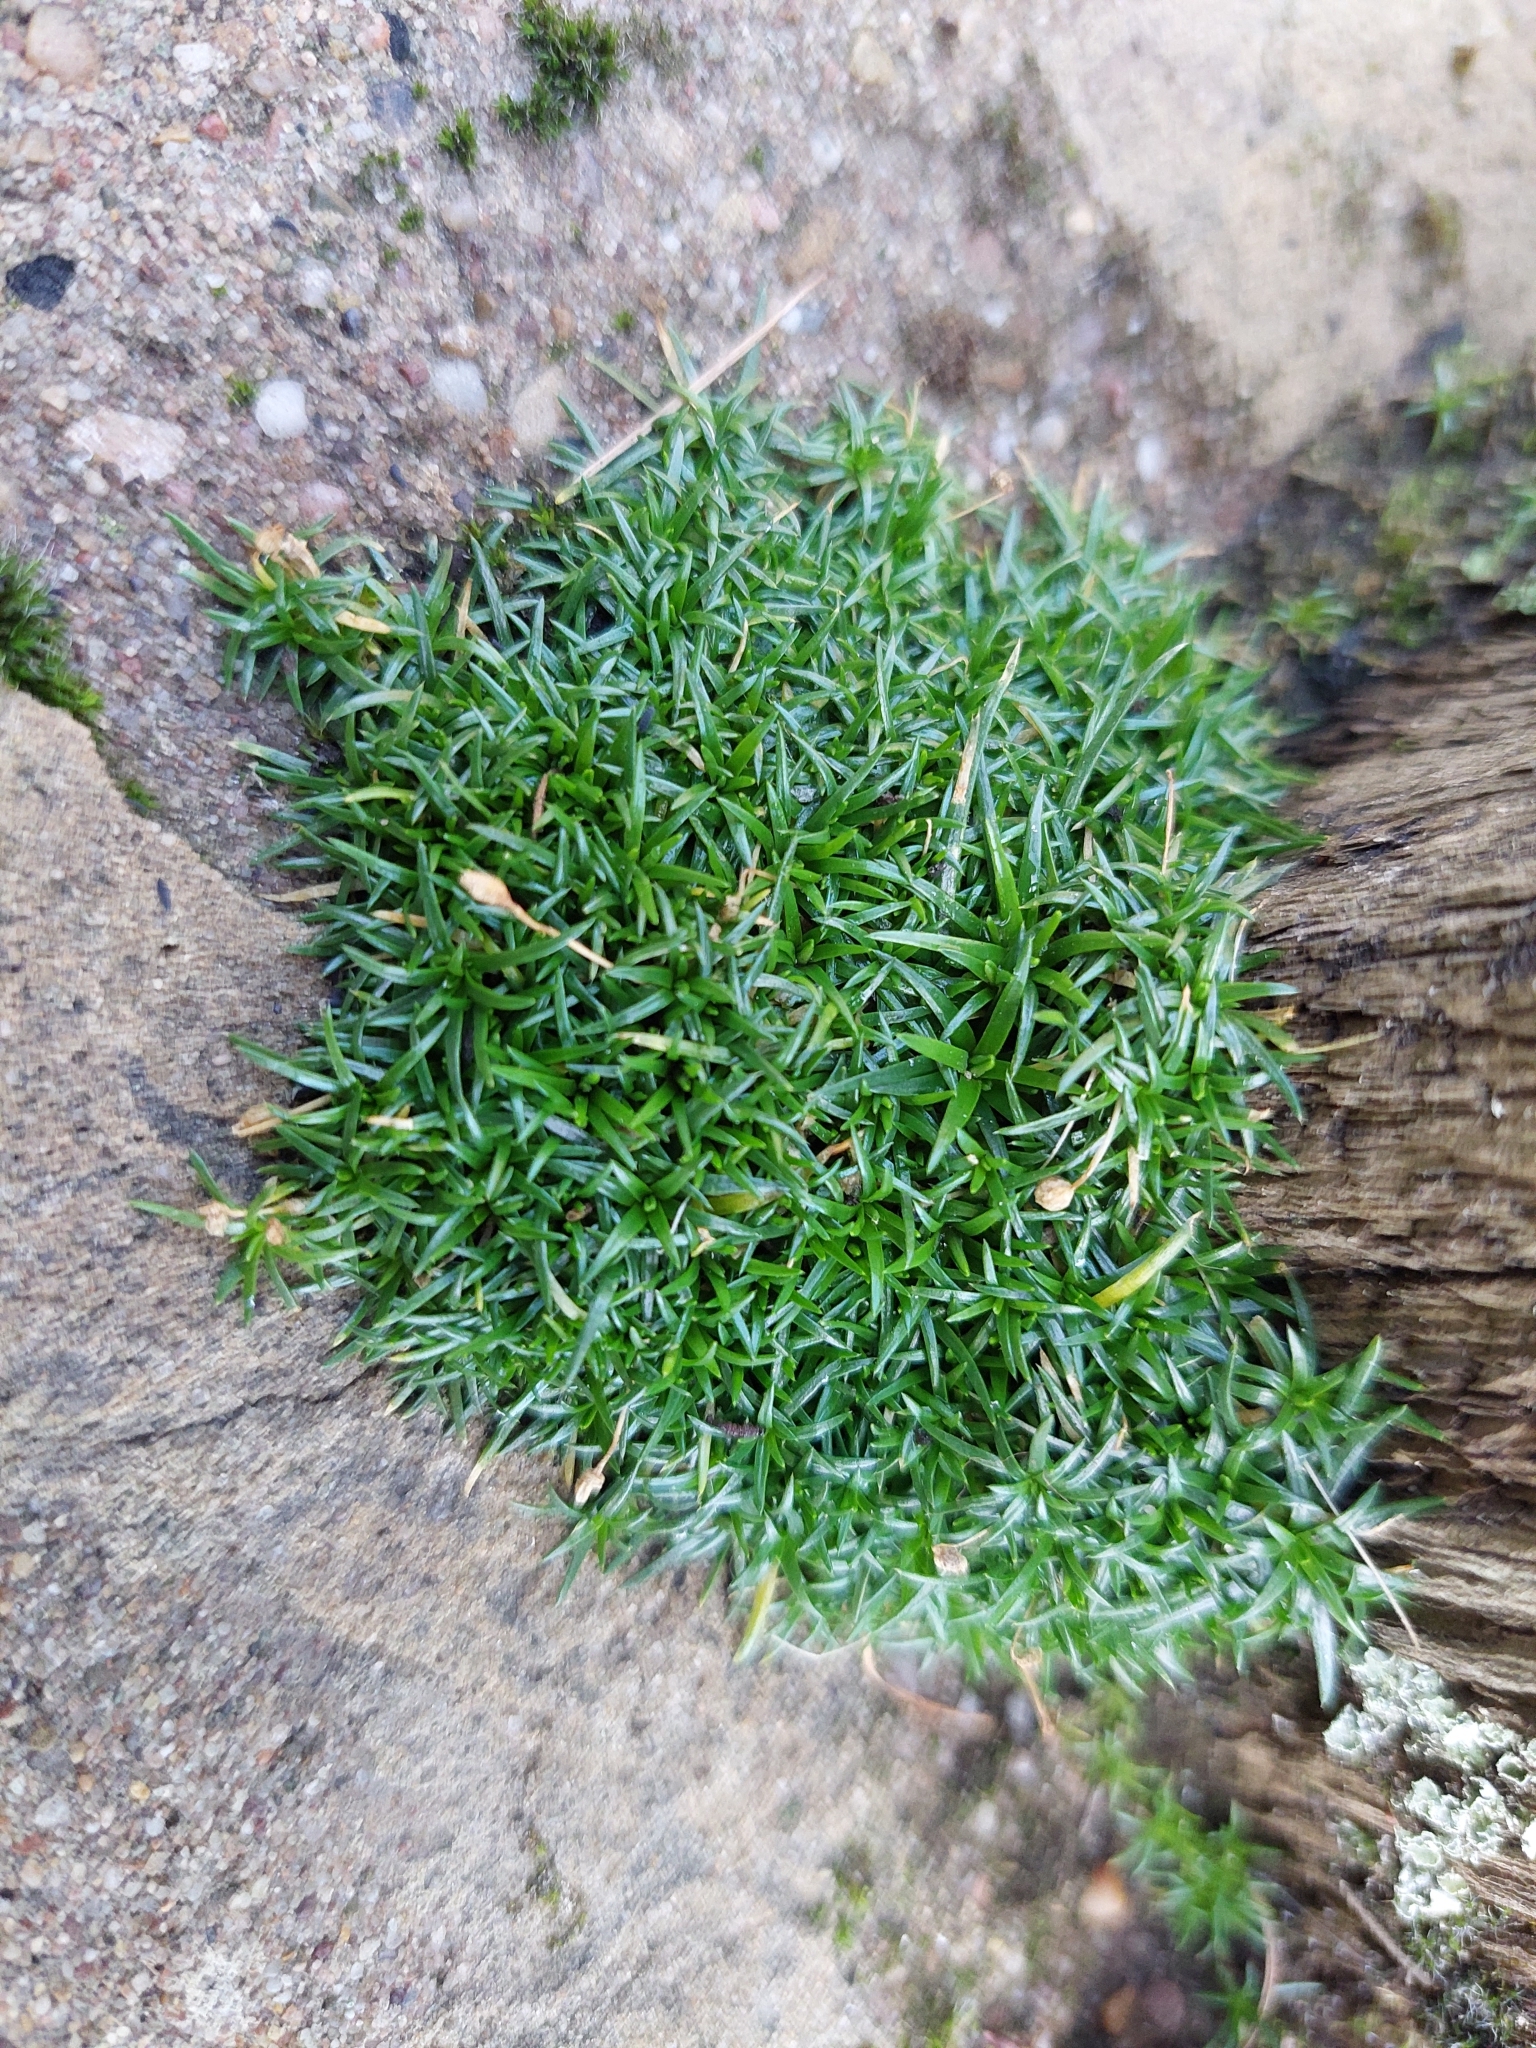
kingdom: Plantae
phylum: Tracheophyta
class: Magnoliopsida
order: Caryophyllales
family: Caryophyllaceae
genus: Sagina
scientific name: Sagina procumbens
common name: Procumbent pearlwort
